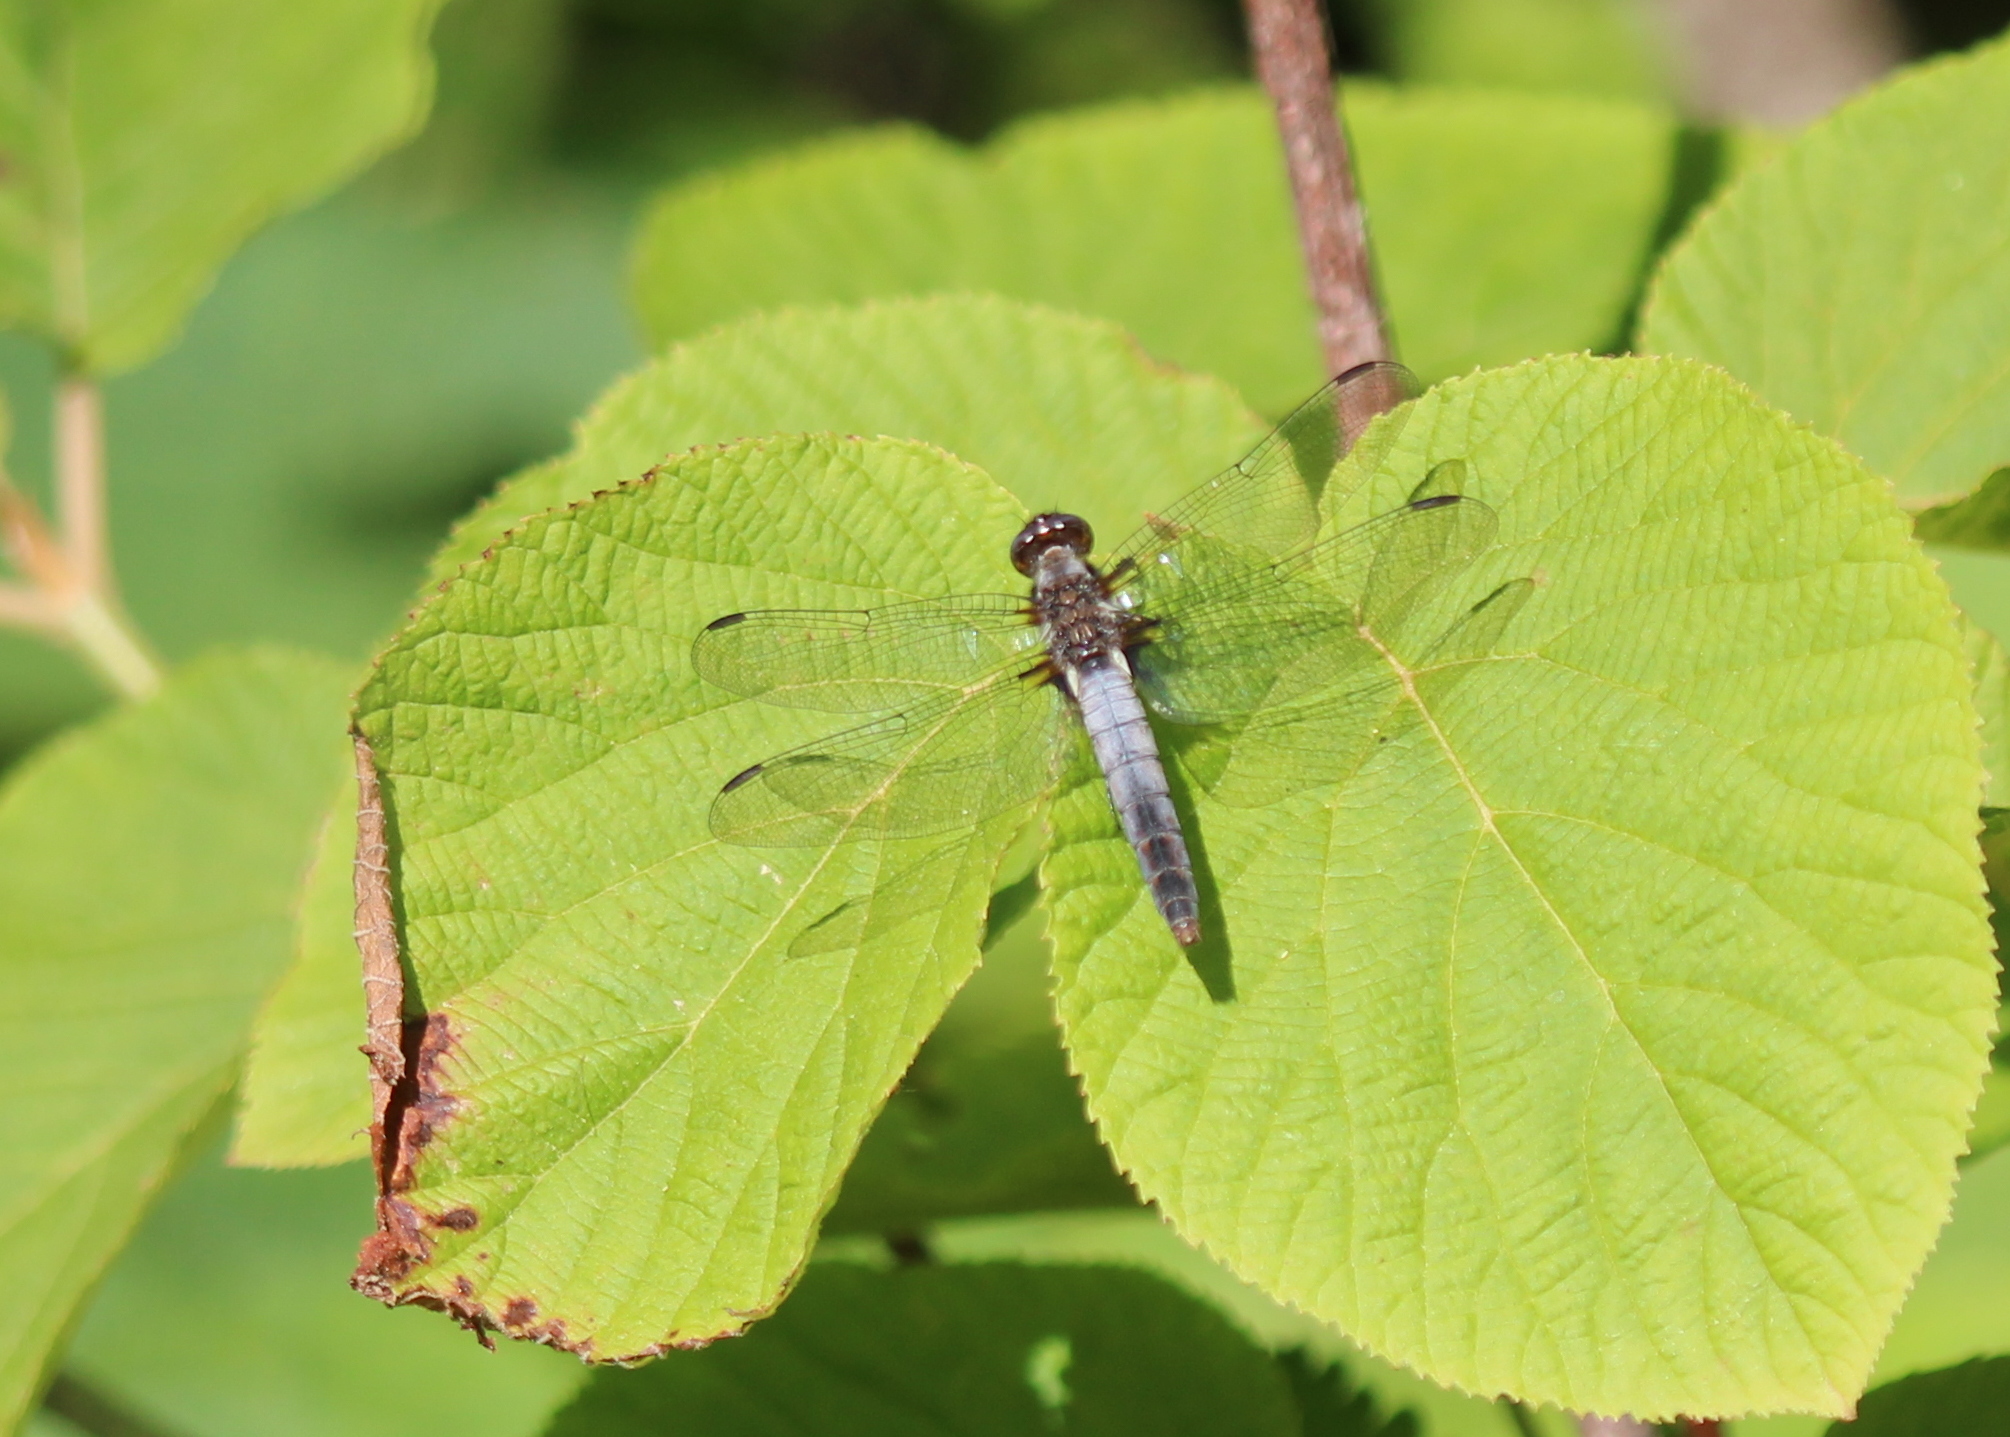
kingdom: Animalia
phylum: Arthropoda
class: Insecta
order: Odonata
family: Libellulidae
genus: Ladona
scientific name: Ladona julia
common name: Chalk-fronted corporal
